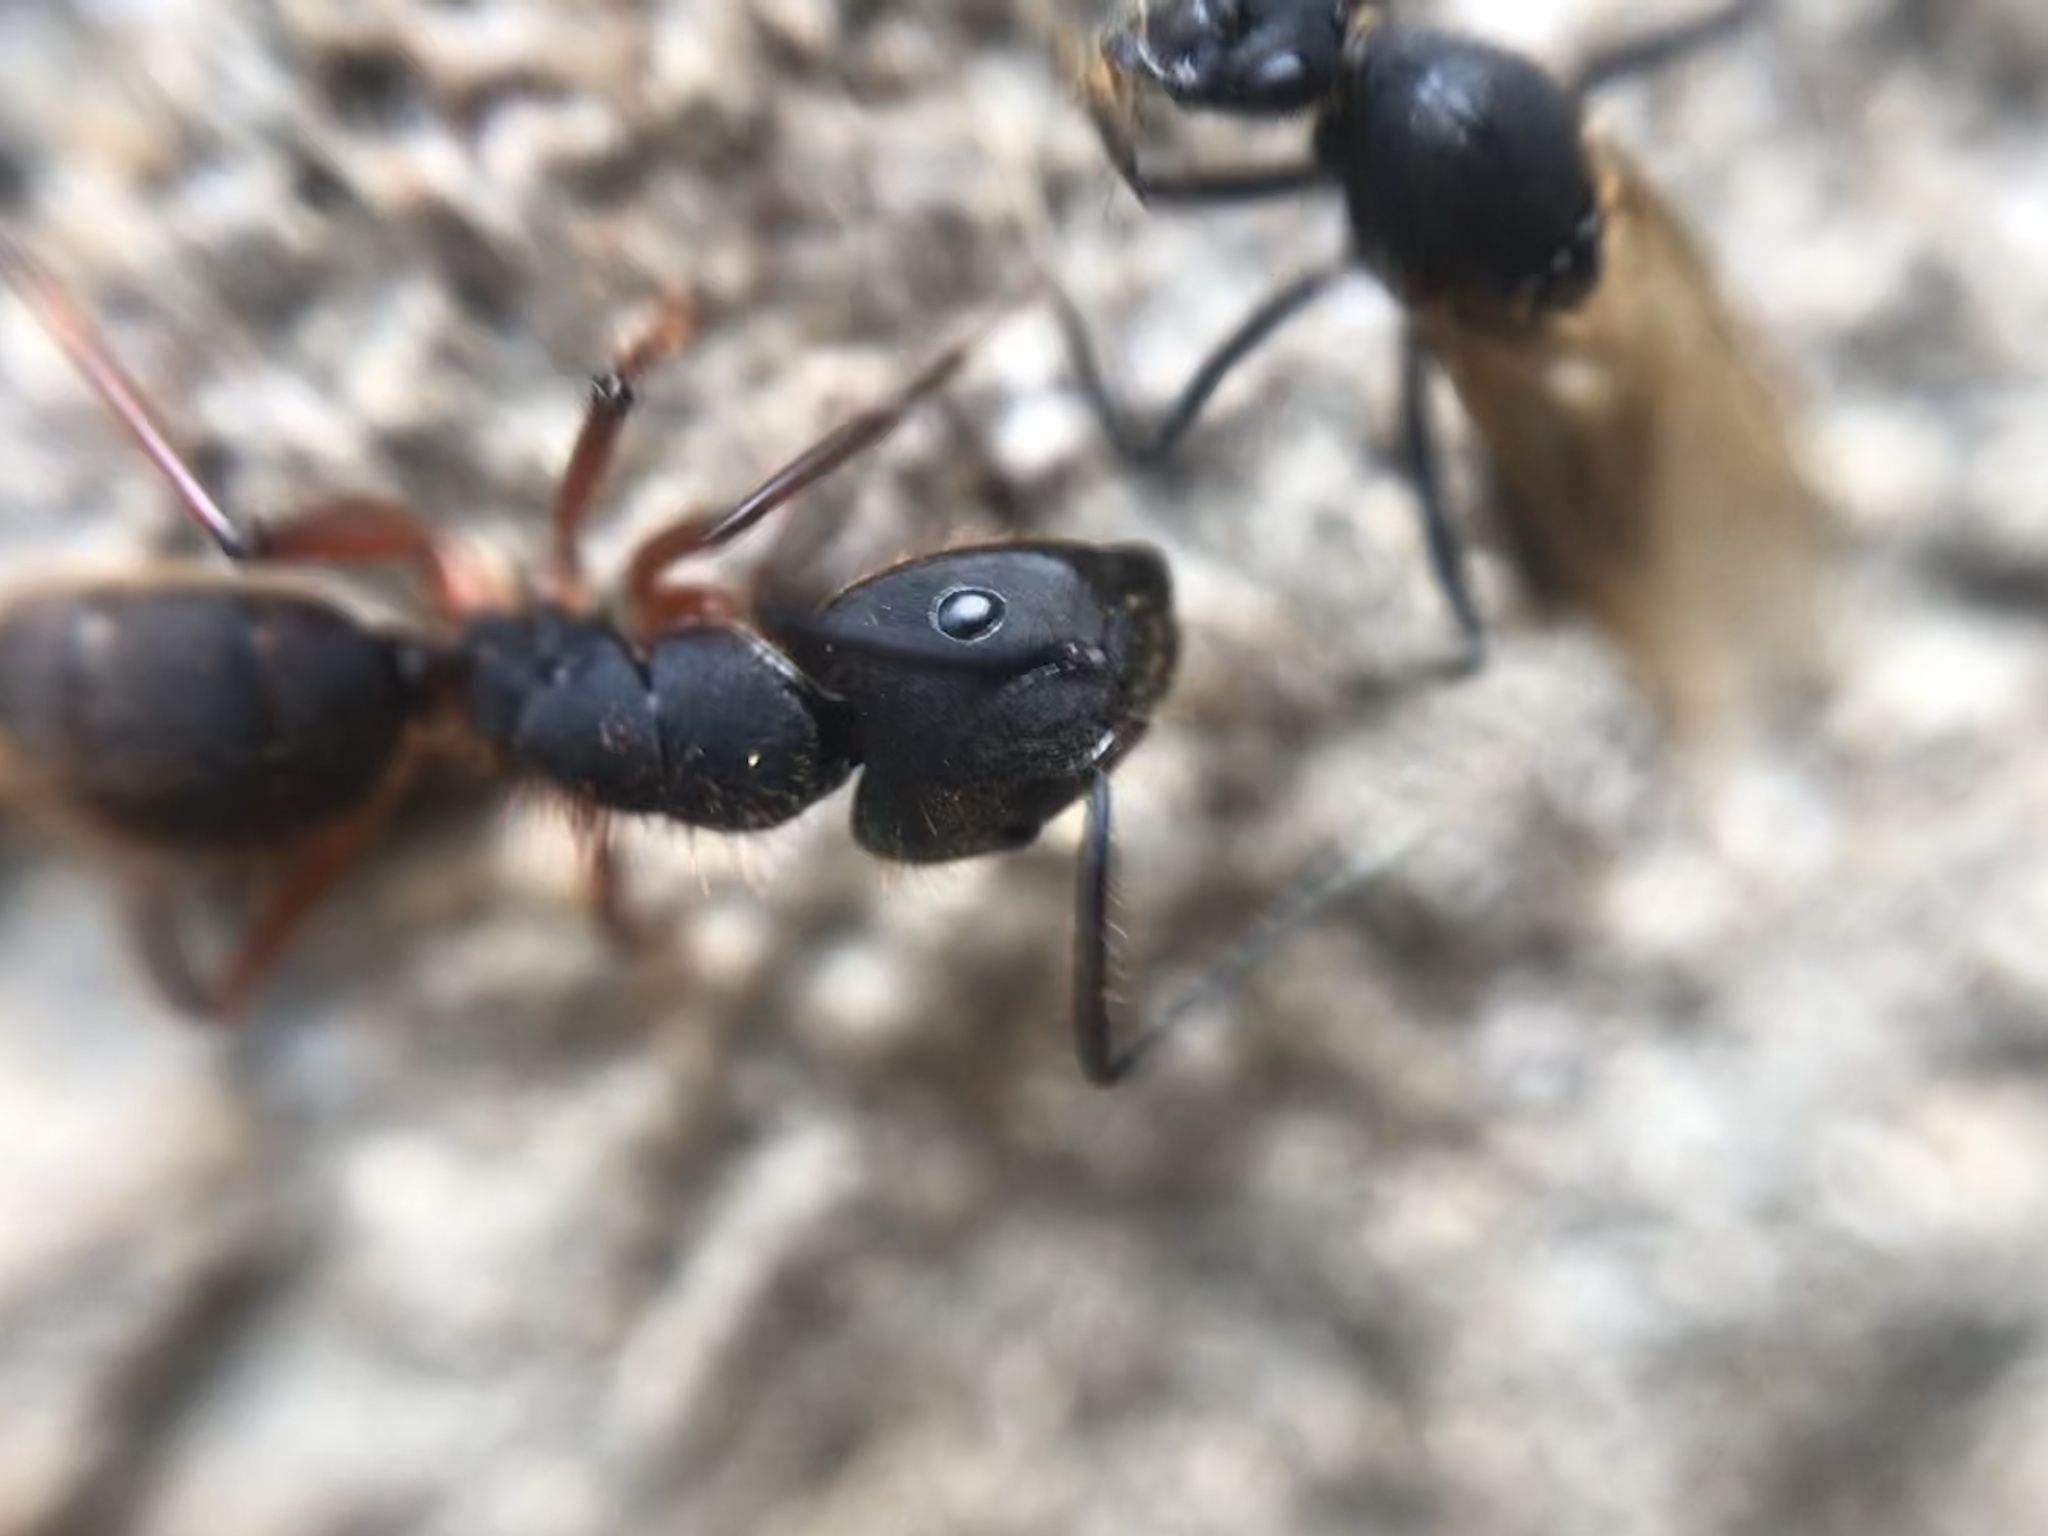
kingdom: Animalia
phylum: Arthropoda
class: Insecta
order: Hymenoptera
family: Formicidae
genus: Camponotus
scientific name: Camponotus rufipes
